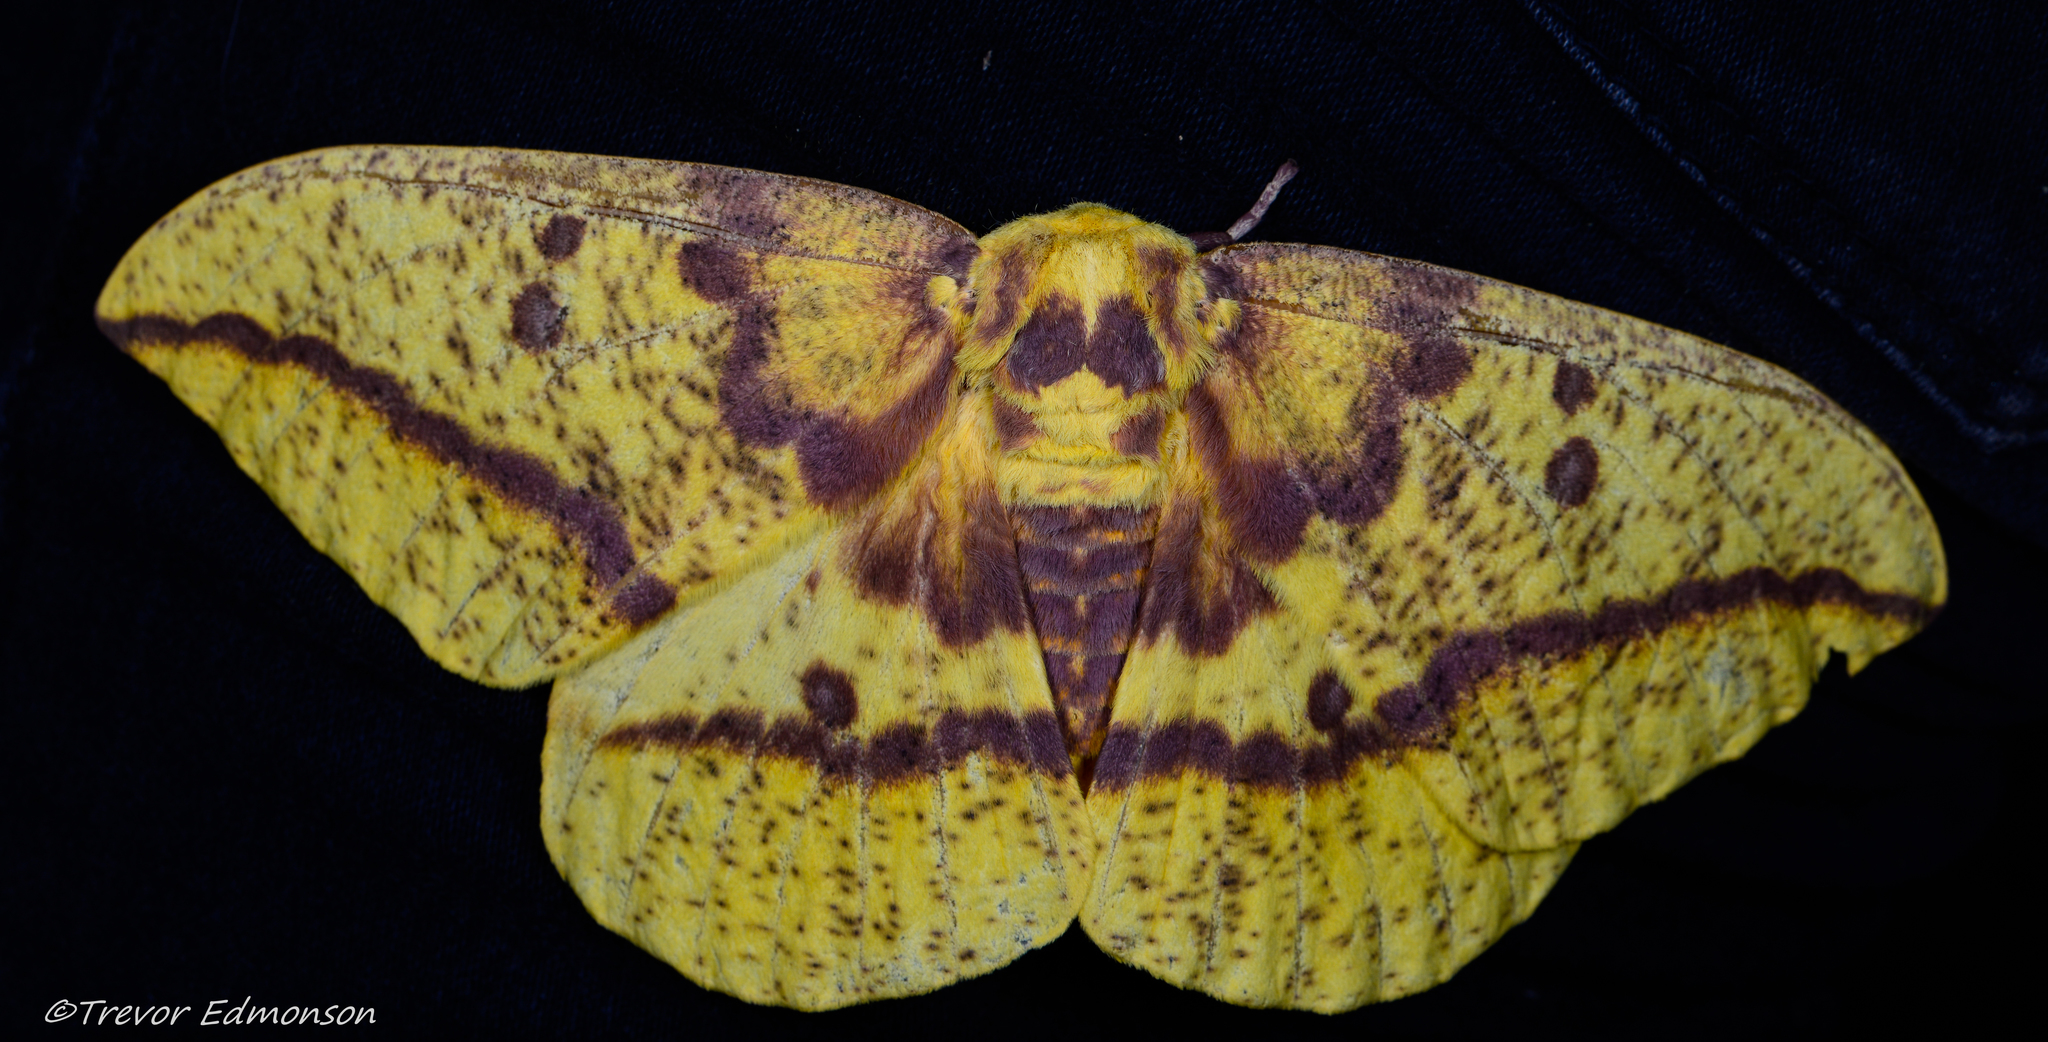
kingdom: Animalia
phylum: Arthropoda
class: Insecta
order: Lepidoptera
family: Saturniidae
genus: Eacles
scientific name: Eacles imperialis
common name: Imperial moth
